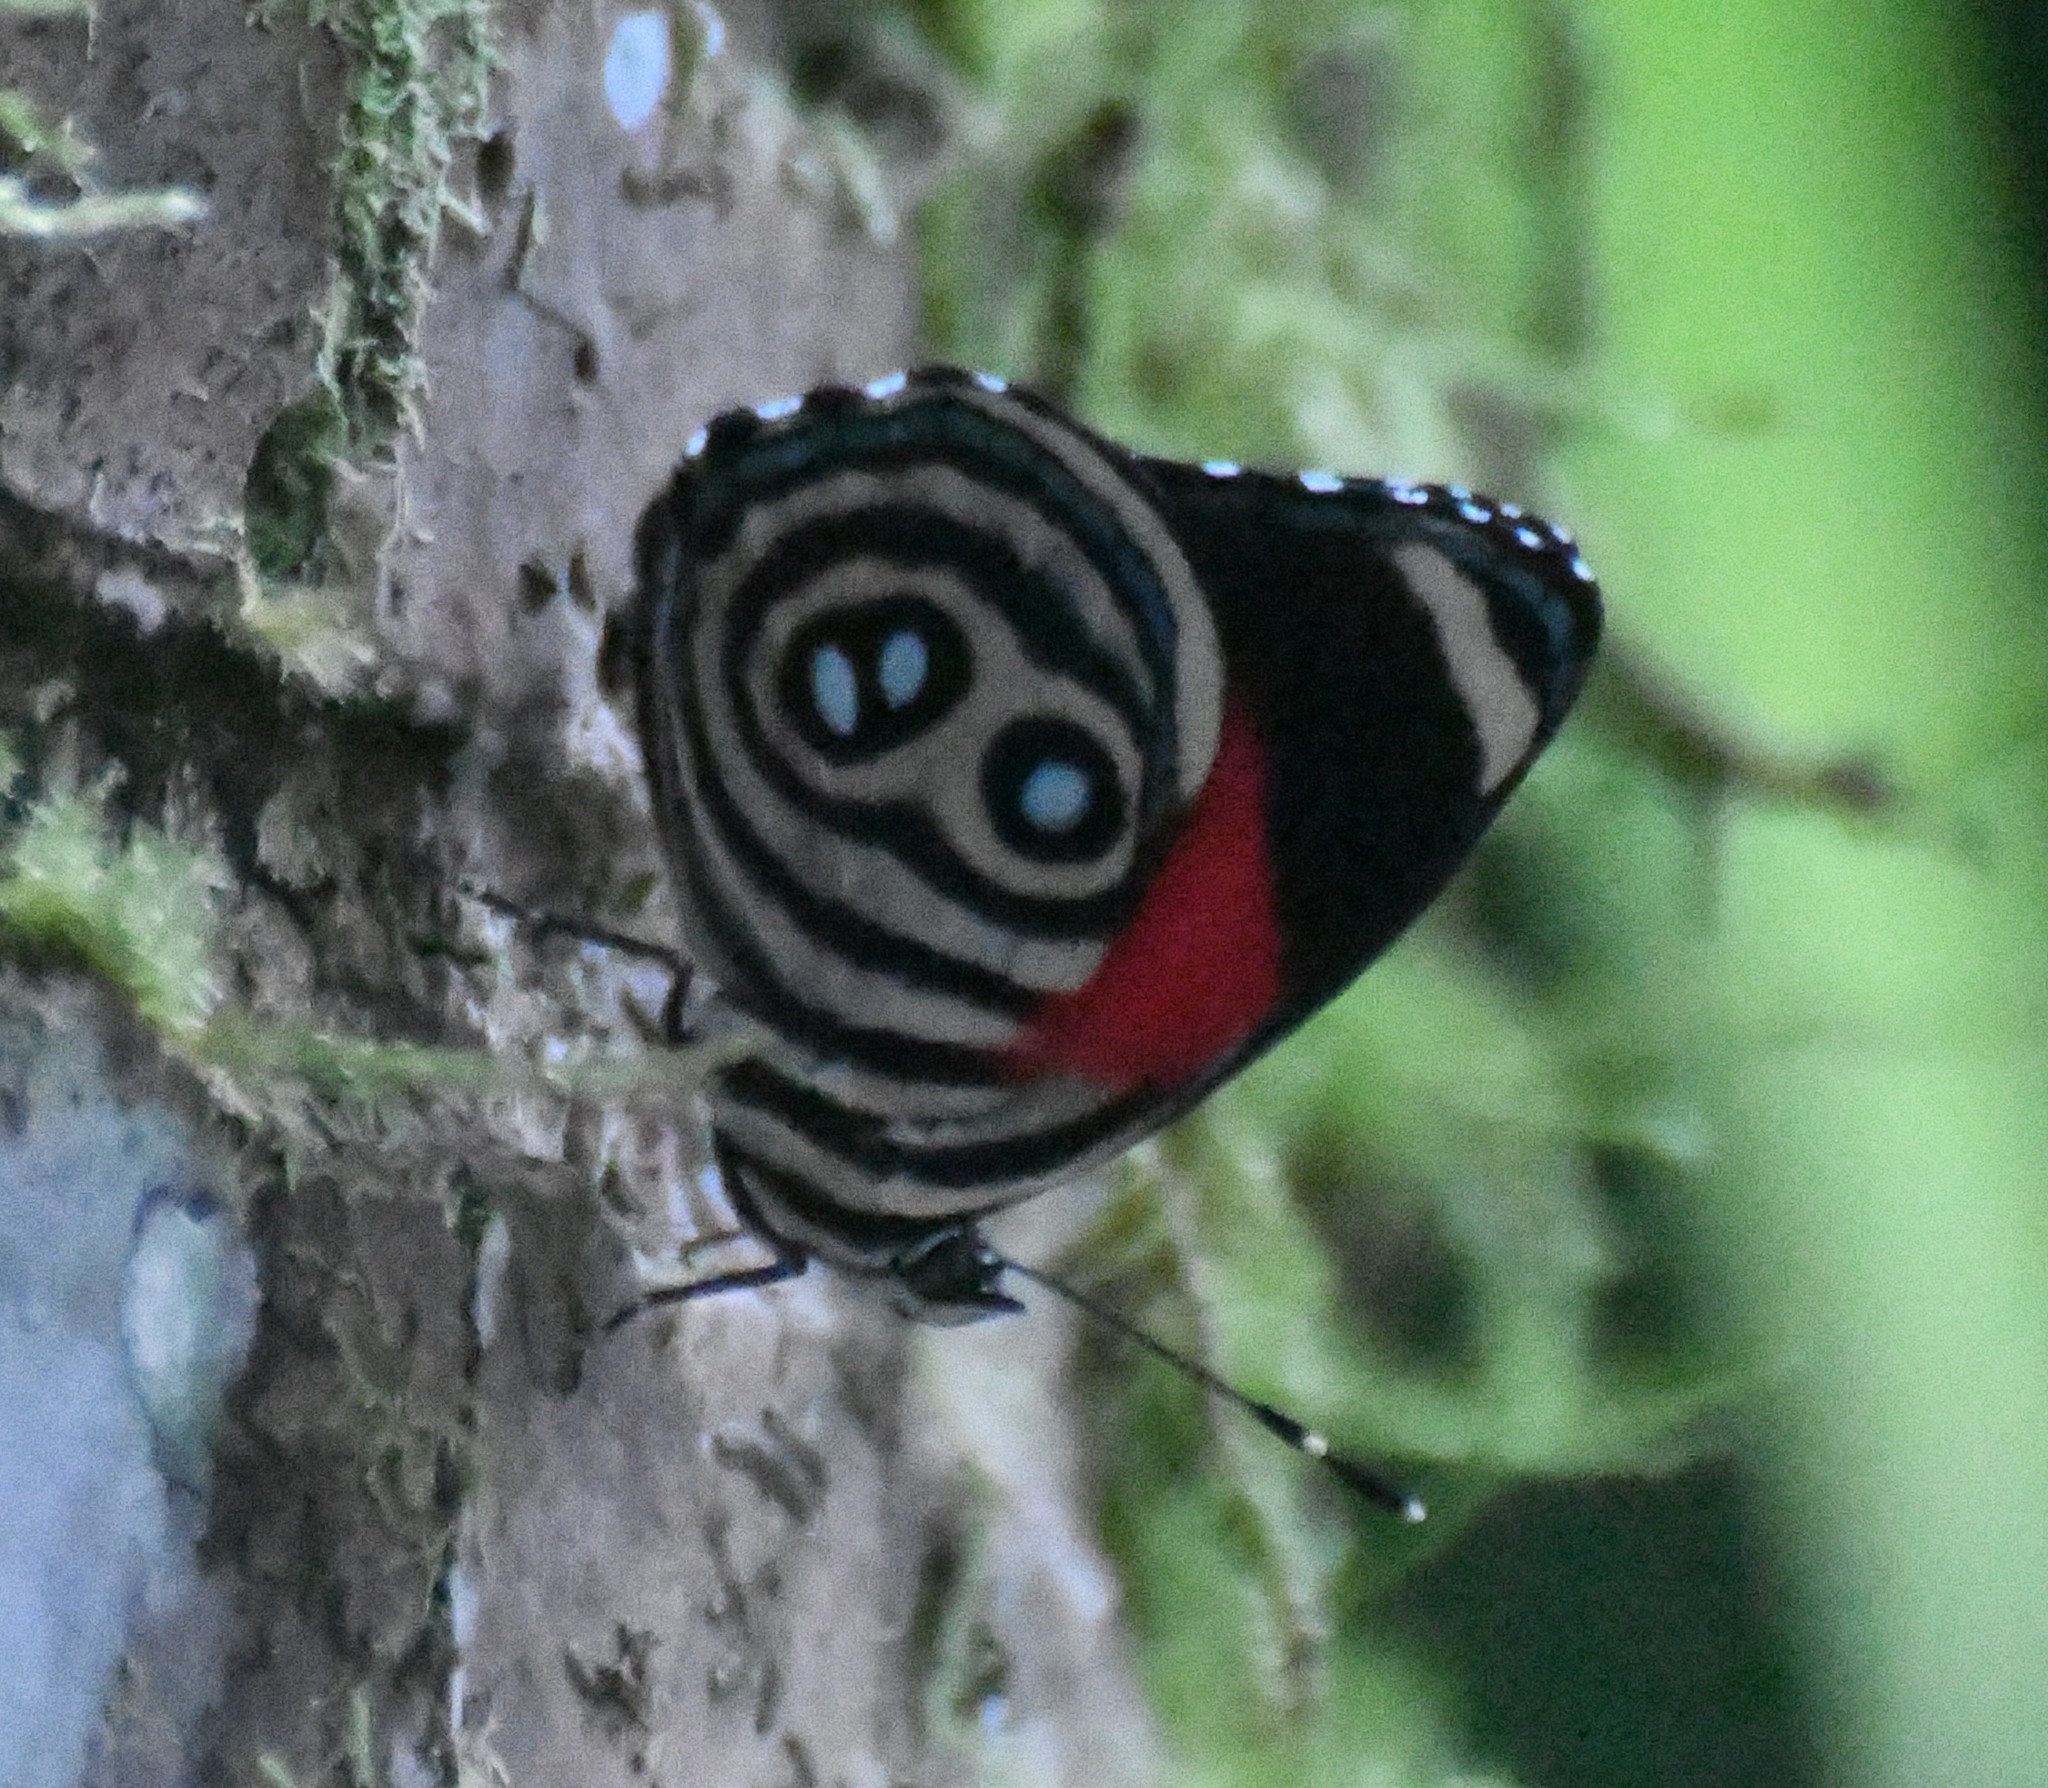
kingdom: Animalia
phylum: Arthropoda
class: Insecta
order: Lepidoptera
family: Nymphalidae
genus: Catagramma
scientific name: Catagramma hystaspes
